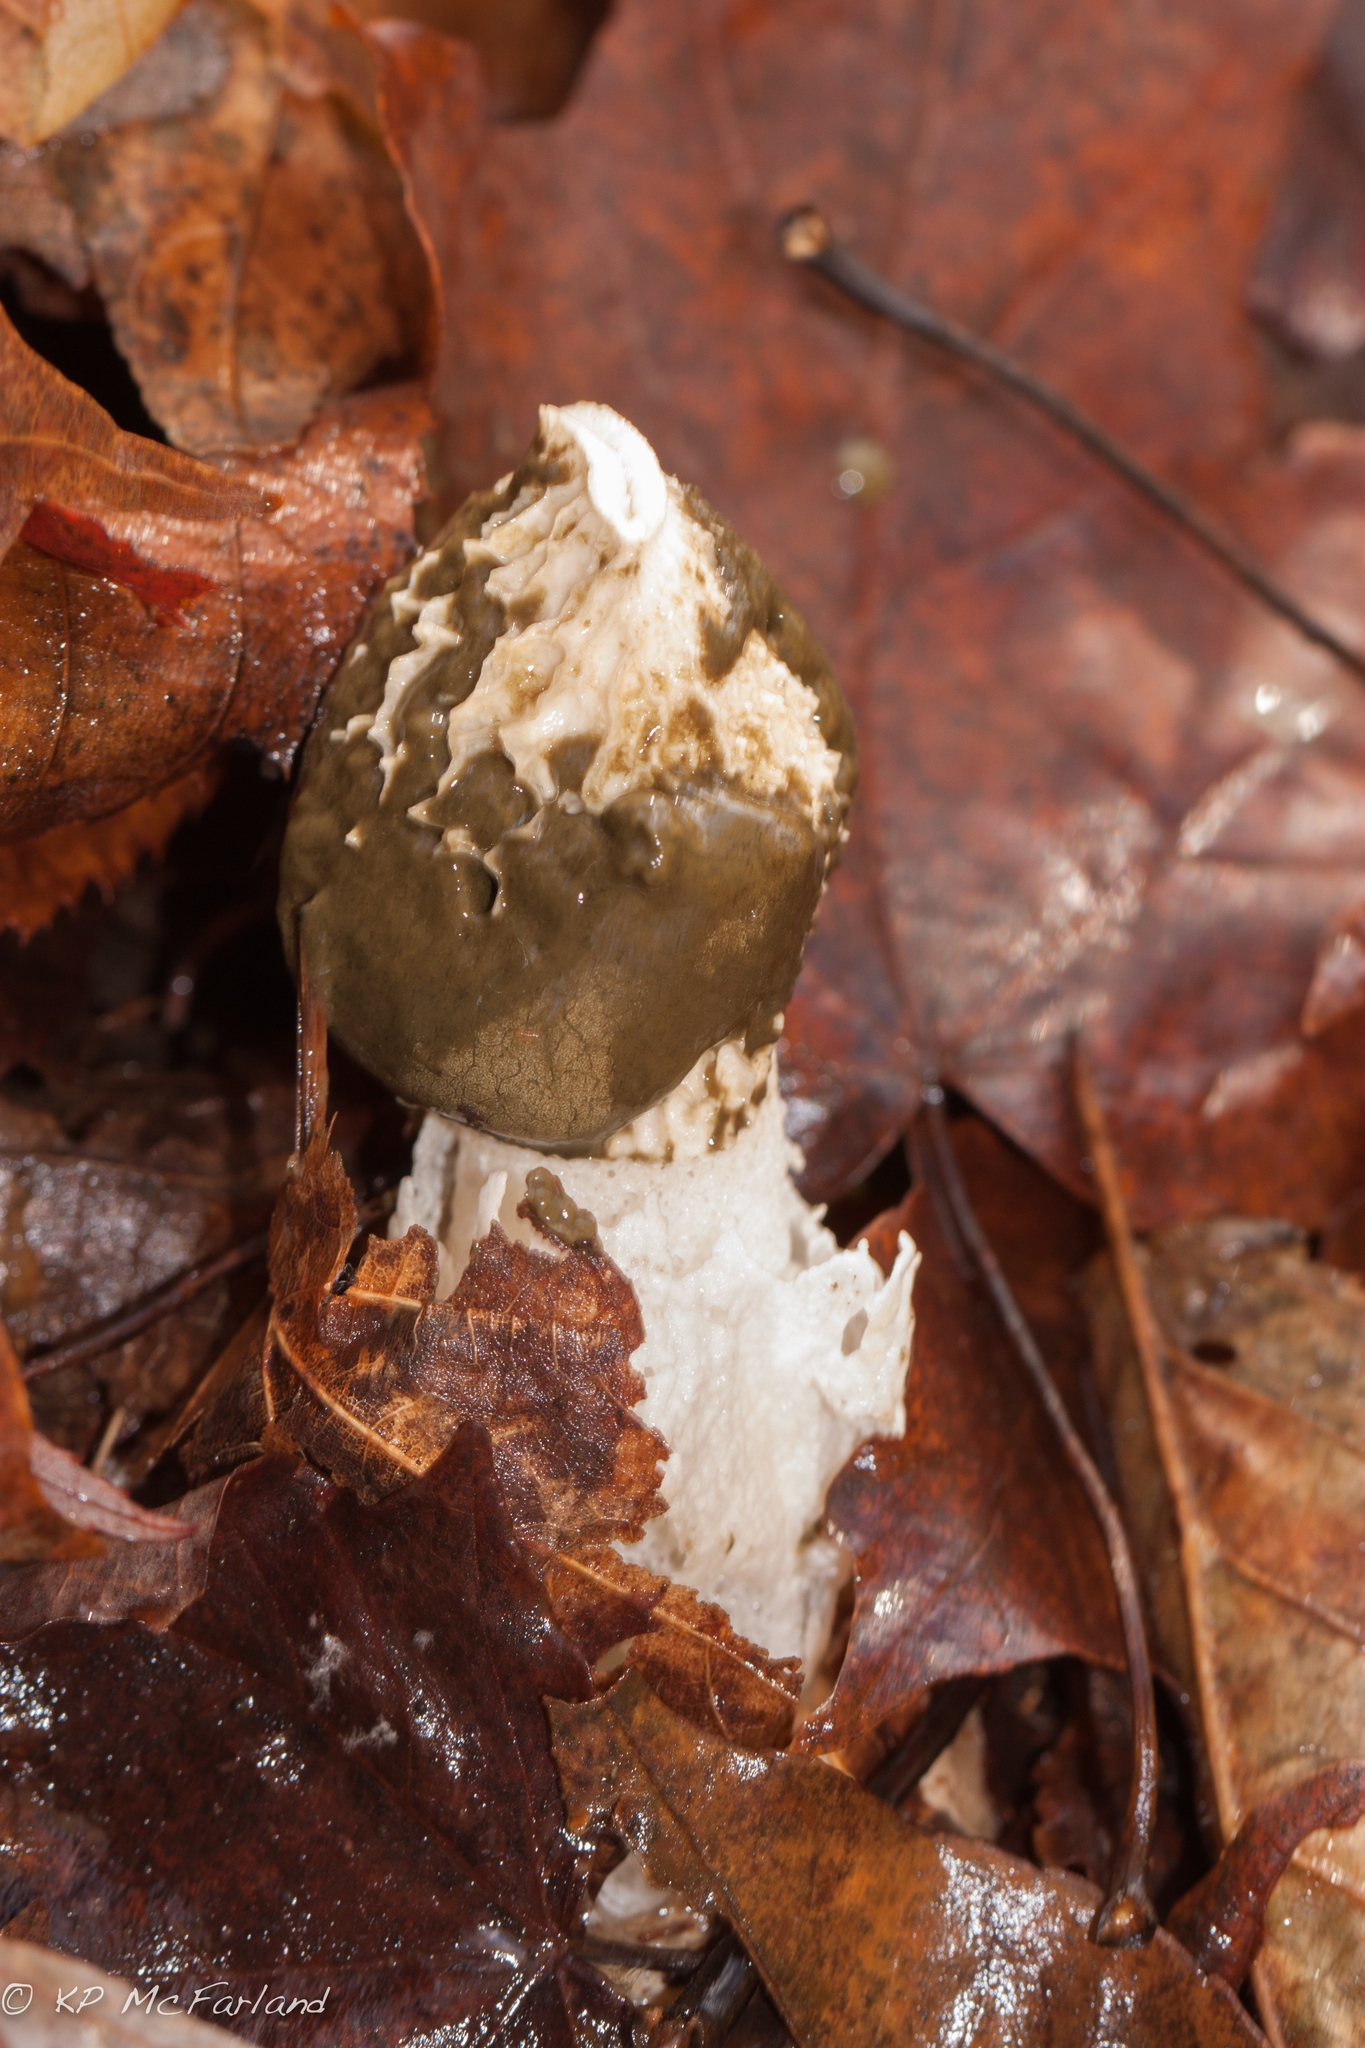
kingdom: Fungi
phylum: Basidiomycota
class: Agaricomycetes
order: Phallales
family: Phallaceae
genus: Phallus
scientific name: Phallus indusiatus
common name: Bridal veil stinkhorn
